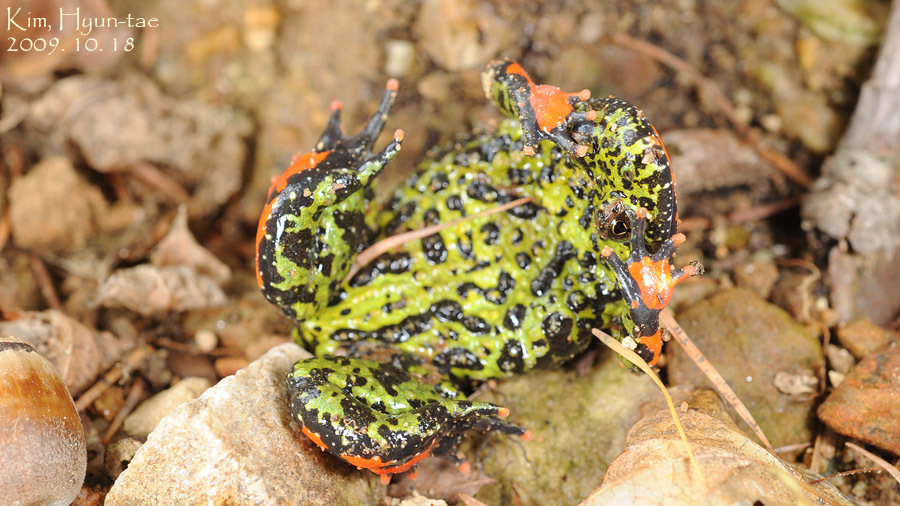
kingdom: Animalia
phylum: Chordata
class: Amphibia
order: Anura
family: Bombinatoridae
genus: Bombina
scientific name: Bombina orientalis
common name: Oriental firebelly toad
